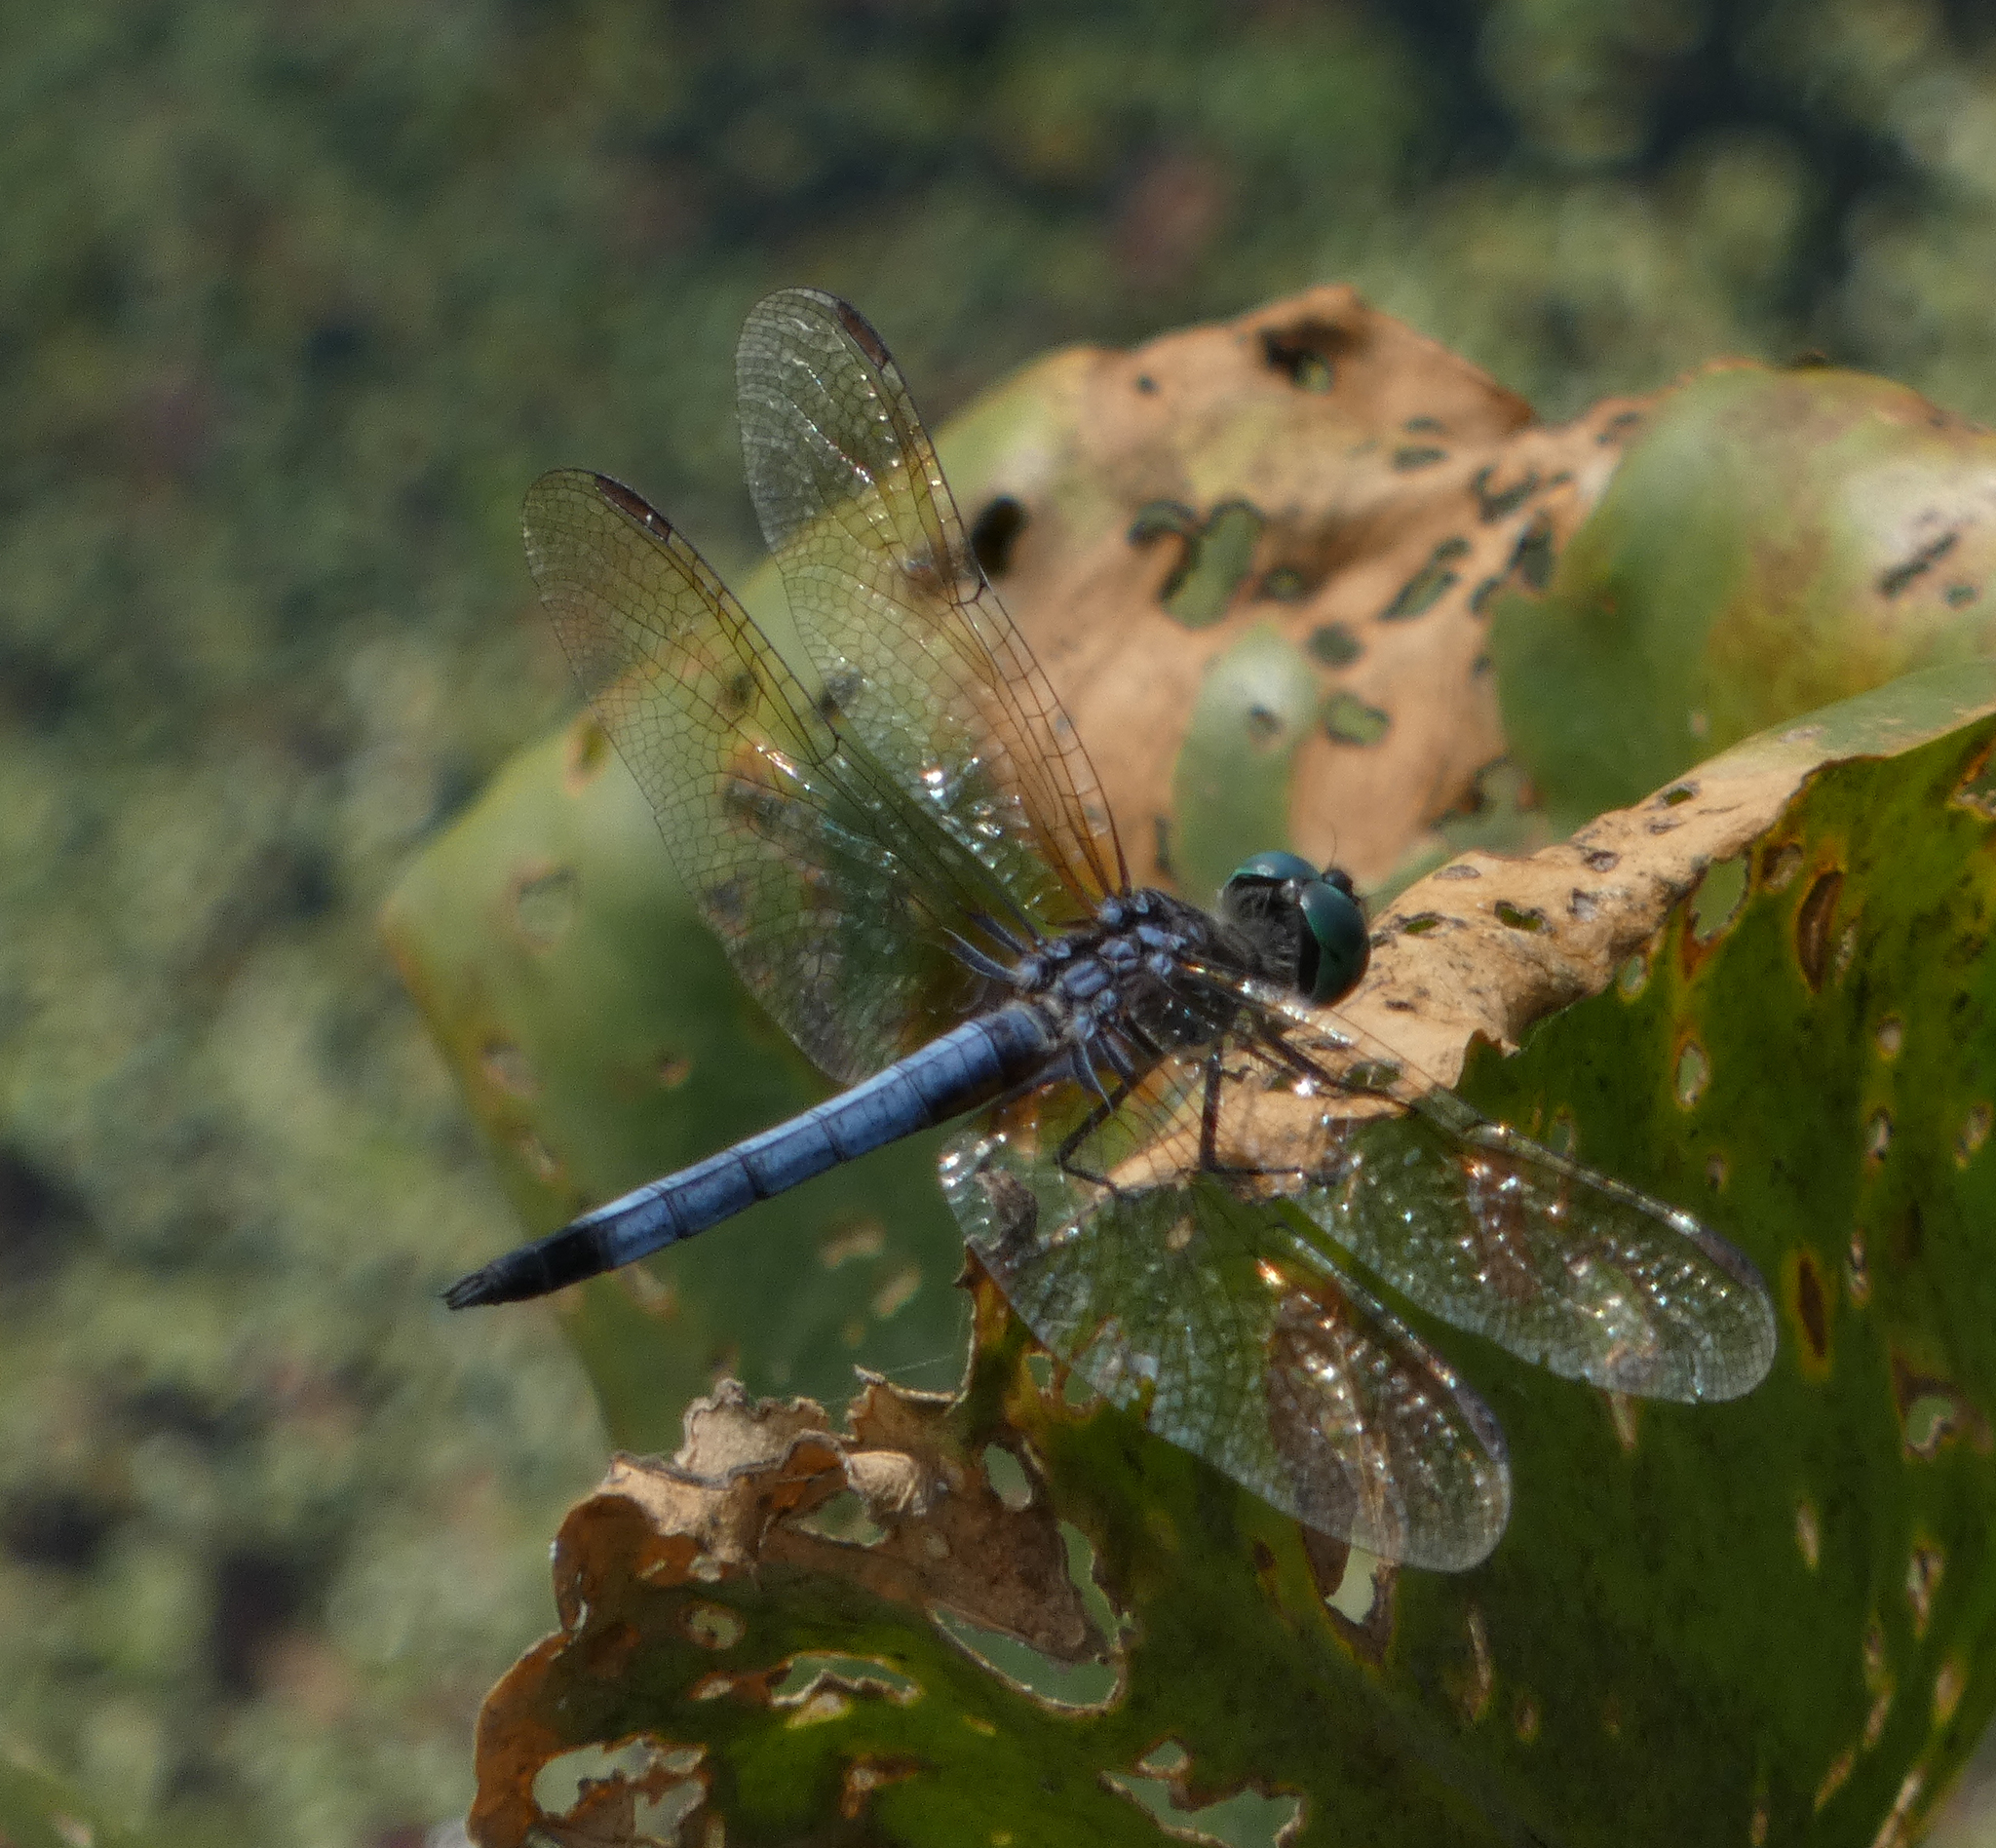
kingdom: Animalia
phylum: Arthropoda
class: Insecta
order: Odonata
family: Libellulidae
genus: Pachydiplax
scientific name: Pachydiplax longipennis
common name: Blue dasher
